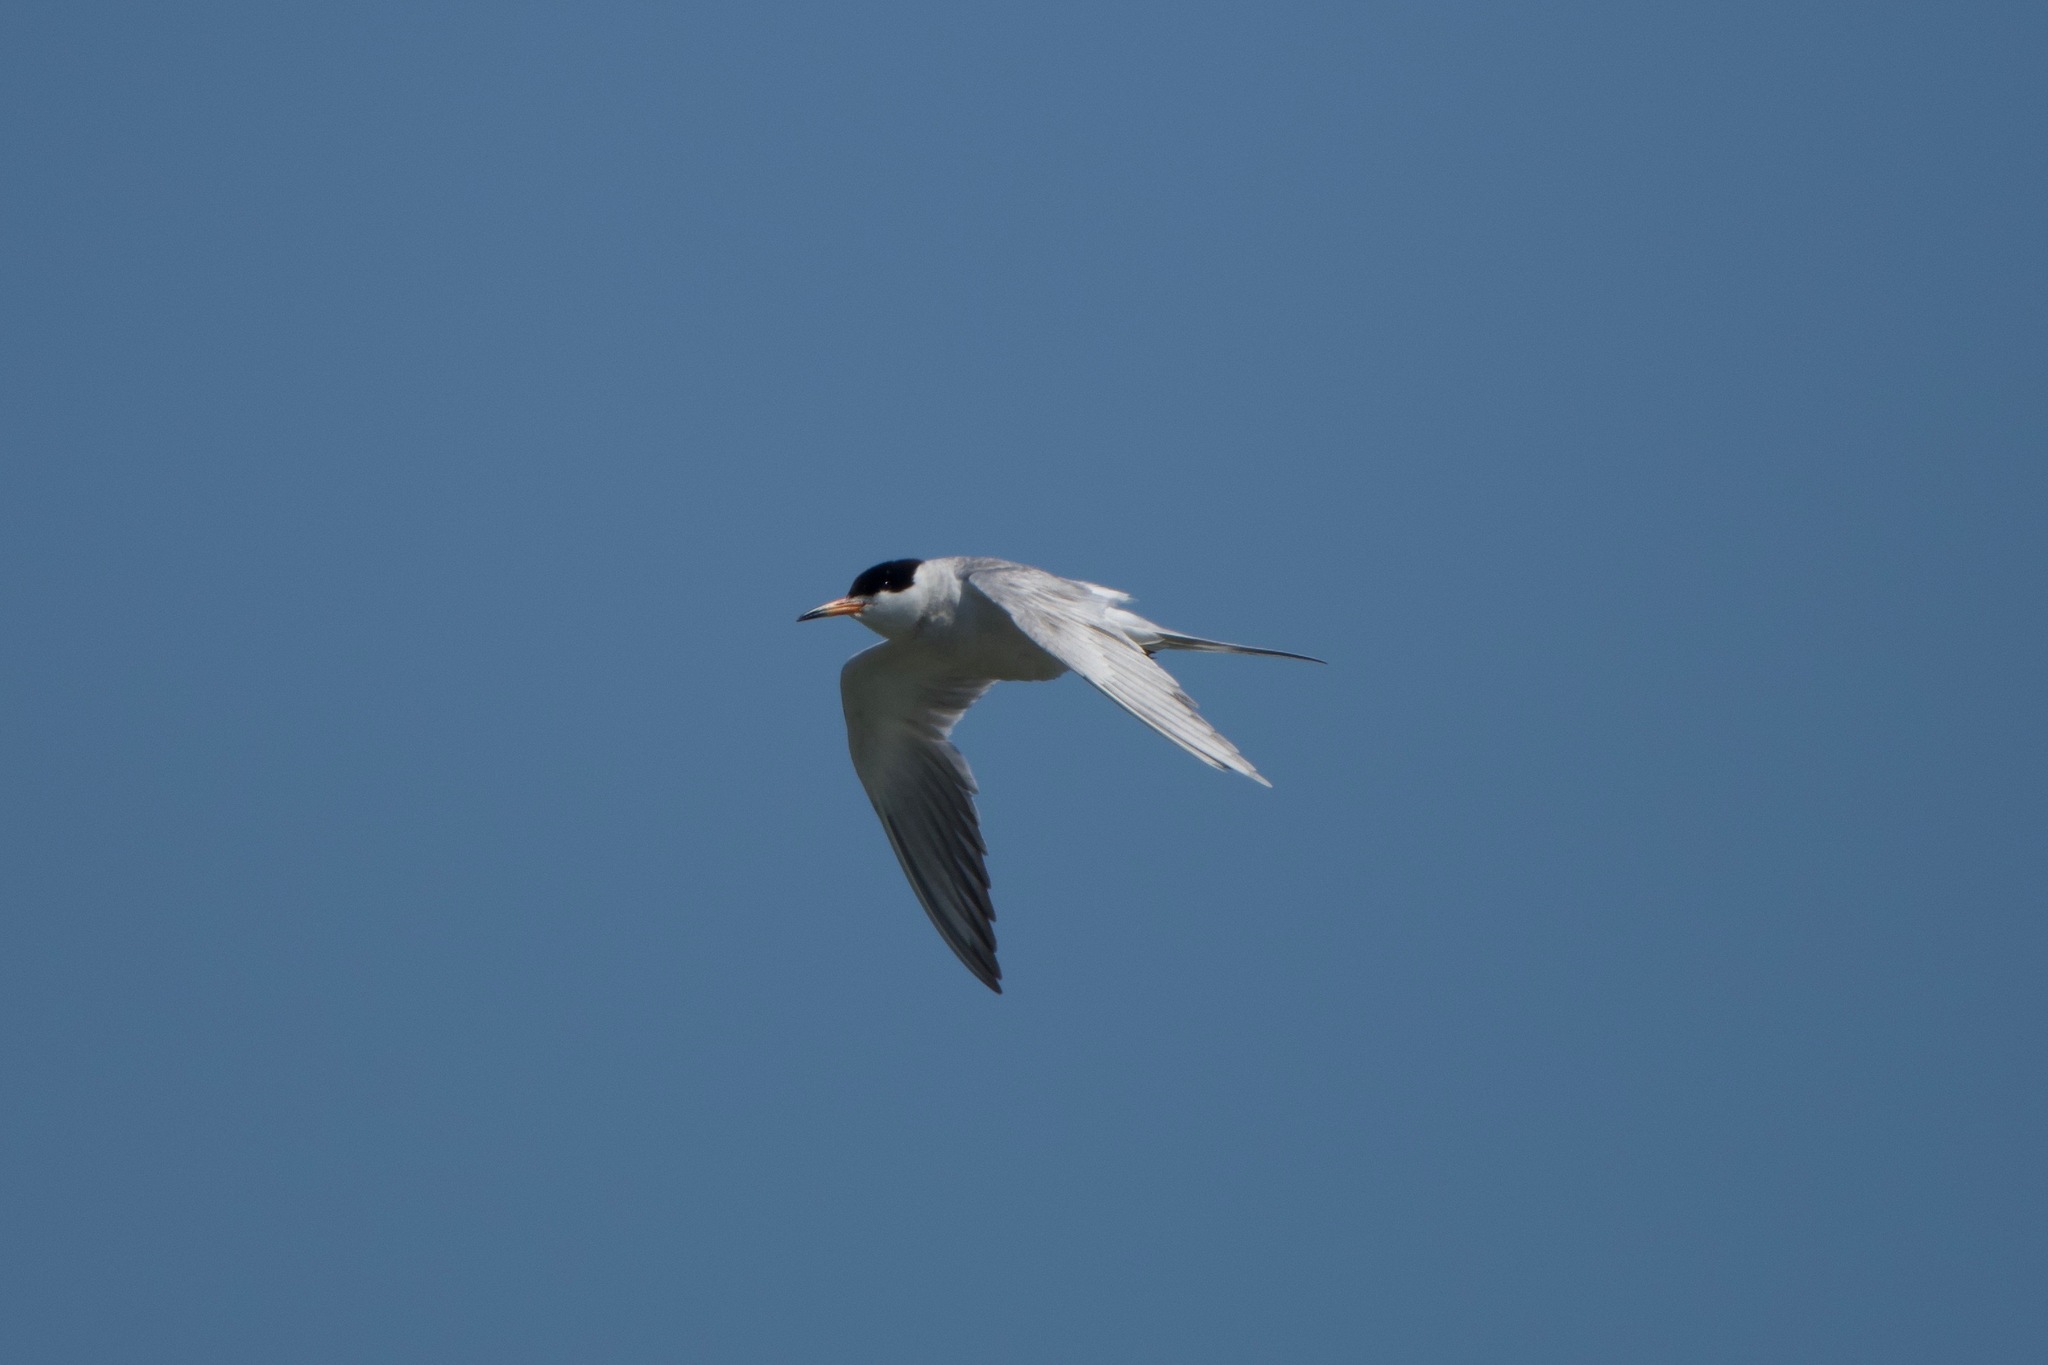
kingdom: Animalia
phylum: Chordata
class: Aves
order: Charadriiformes
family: Laridae
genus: Sterna
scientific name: Sterna forsteri
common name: Forster's tern
